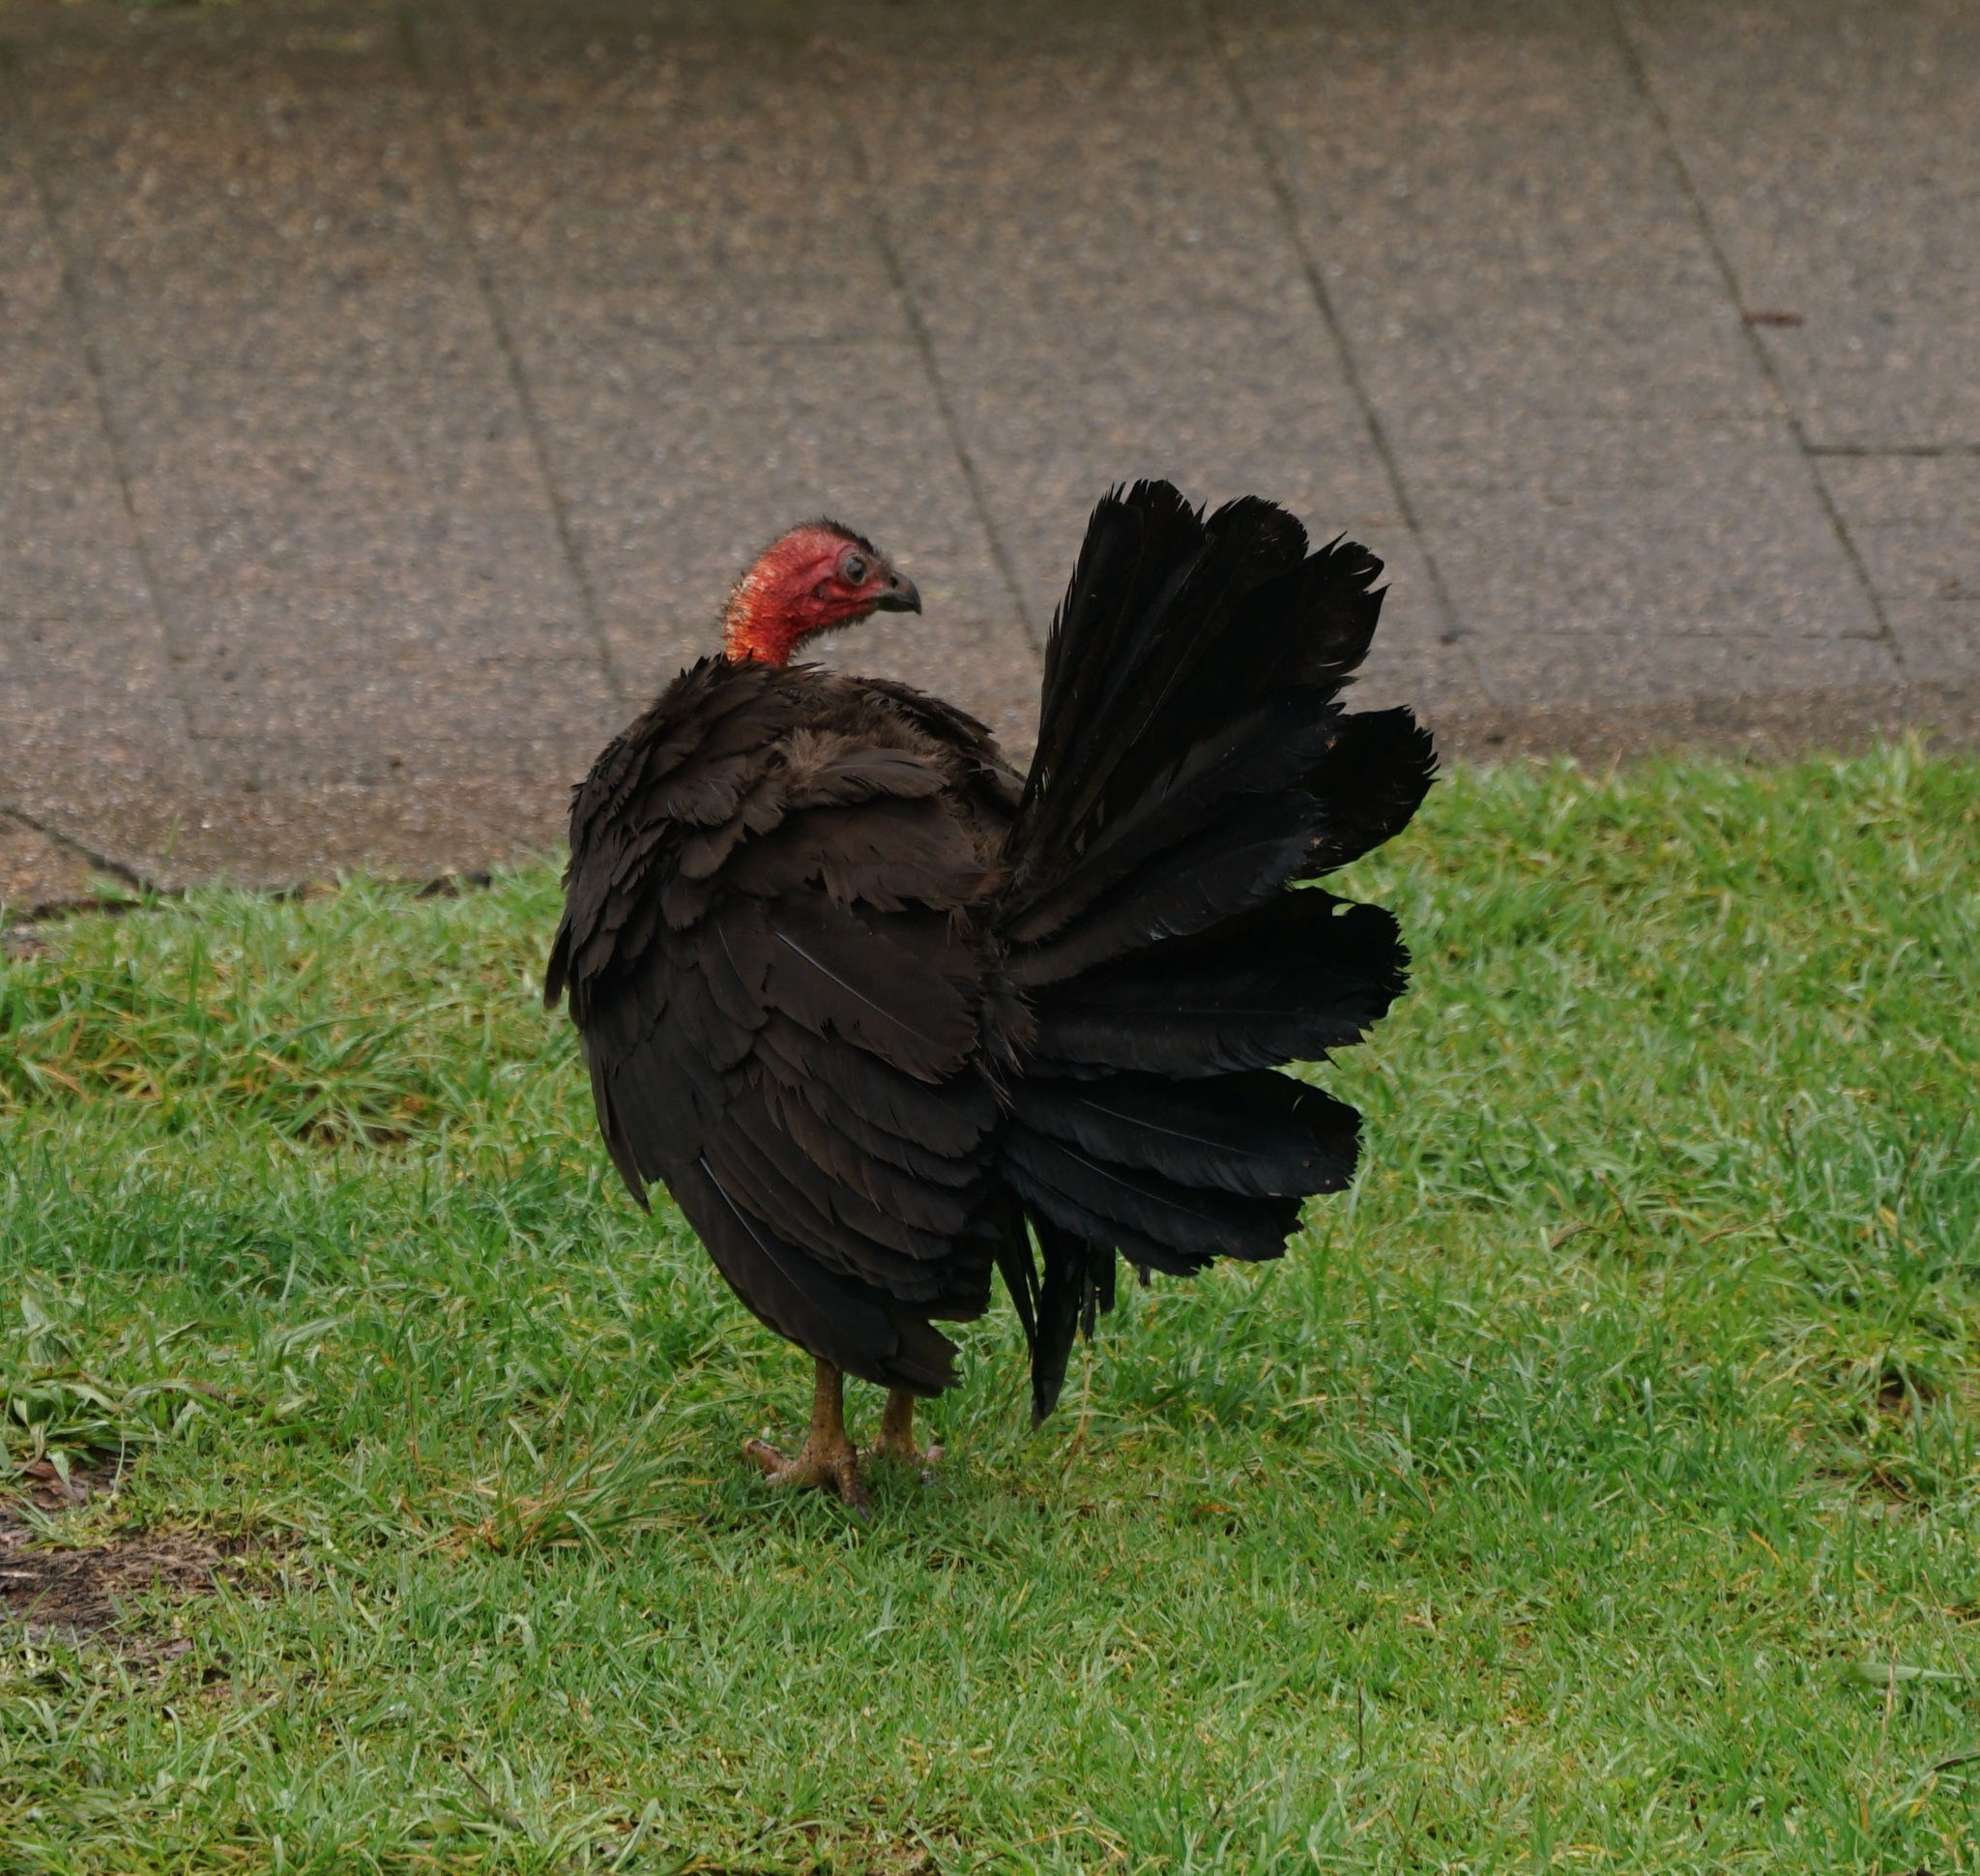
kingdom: Animalia
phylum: Chordata
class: Aves
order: Galliformes
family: Megapodiidae
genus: Alectura
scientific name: Alectura lathami
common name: Australian brushturkey
